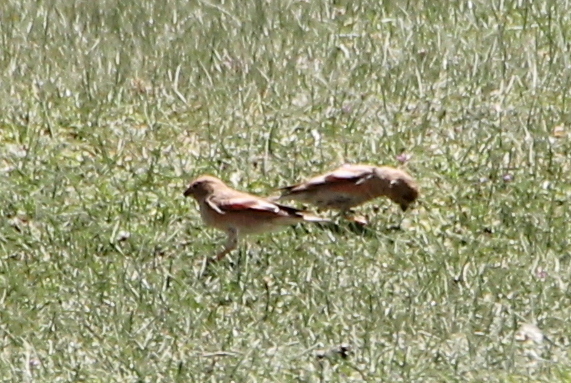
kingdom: Animalia
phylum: Chordata
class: Aves
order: Passeriformes
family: Fringillidae
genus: Bucanetes
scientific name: Bucanetes mongolicus
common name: Mongolian finch
